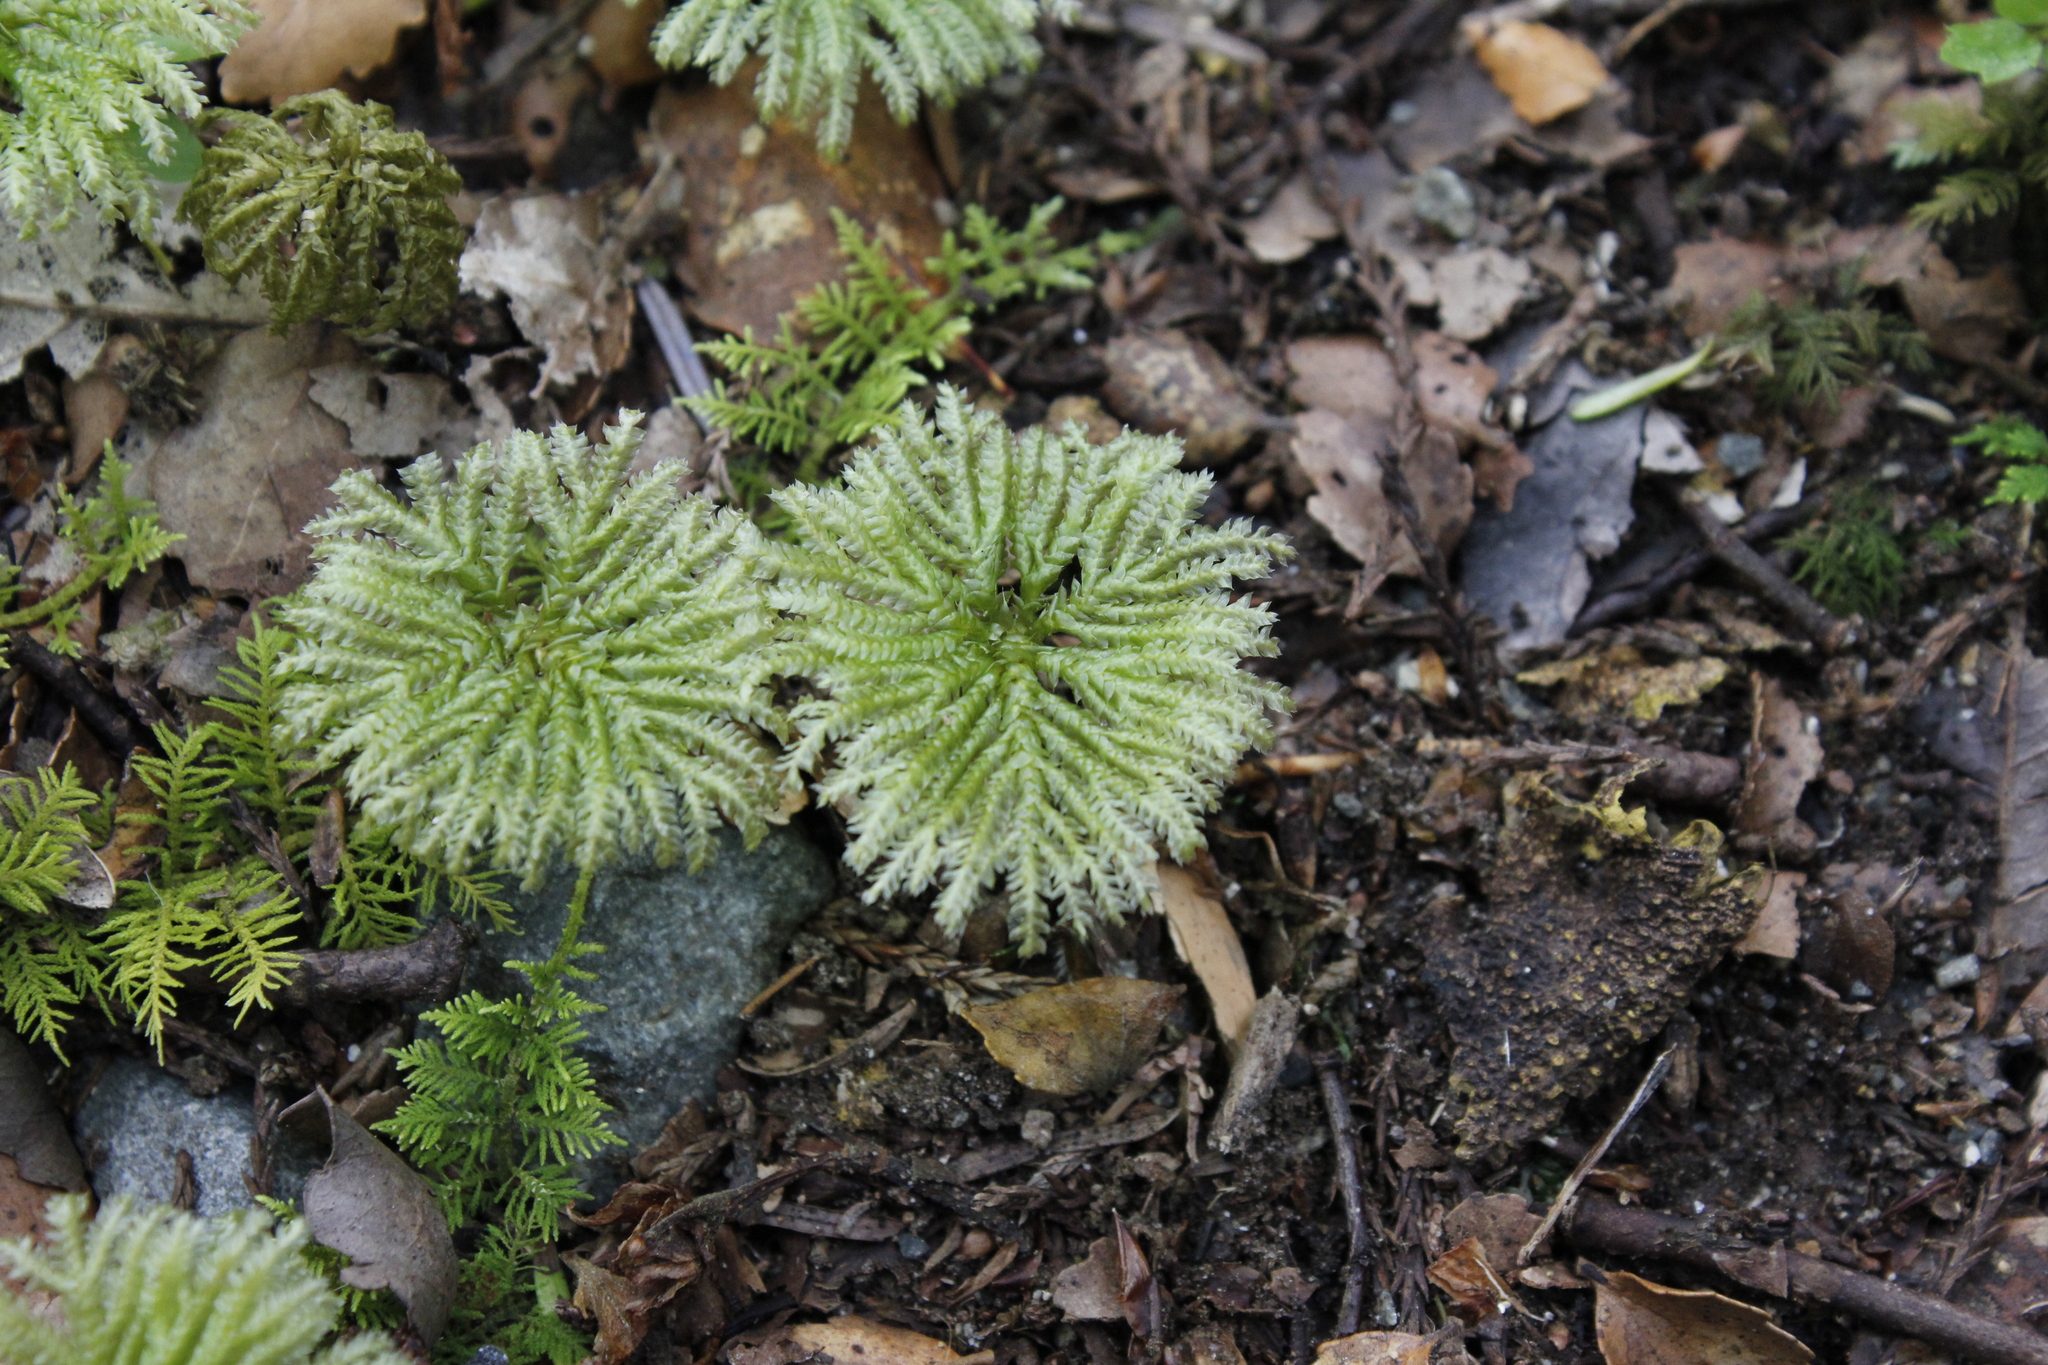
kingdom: Plantae
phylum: Bryophyta
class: Bryopsida
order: Hypopterygiales
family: Hypopterygiaceae
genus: Canalohypopterygium
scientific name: Canalohypopterygium tamariscinum
